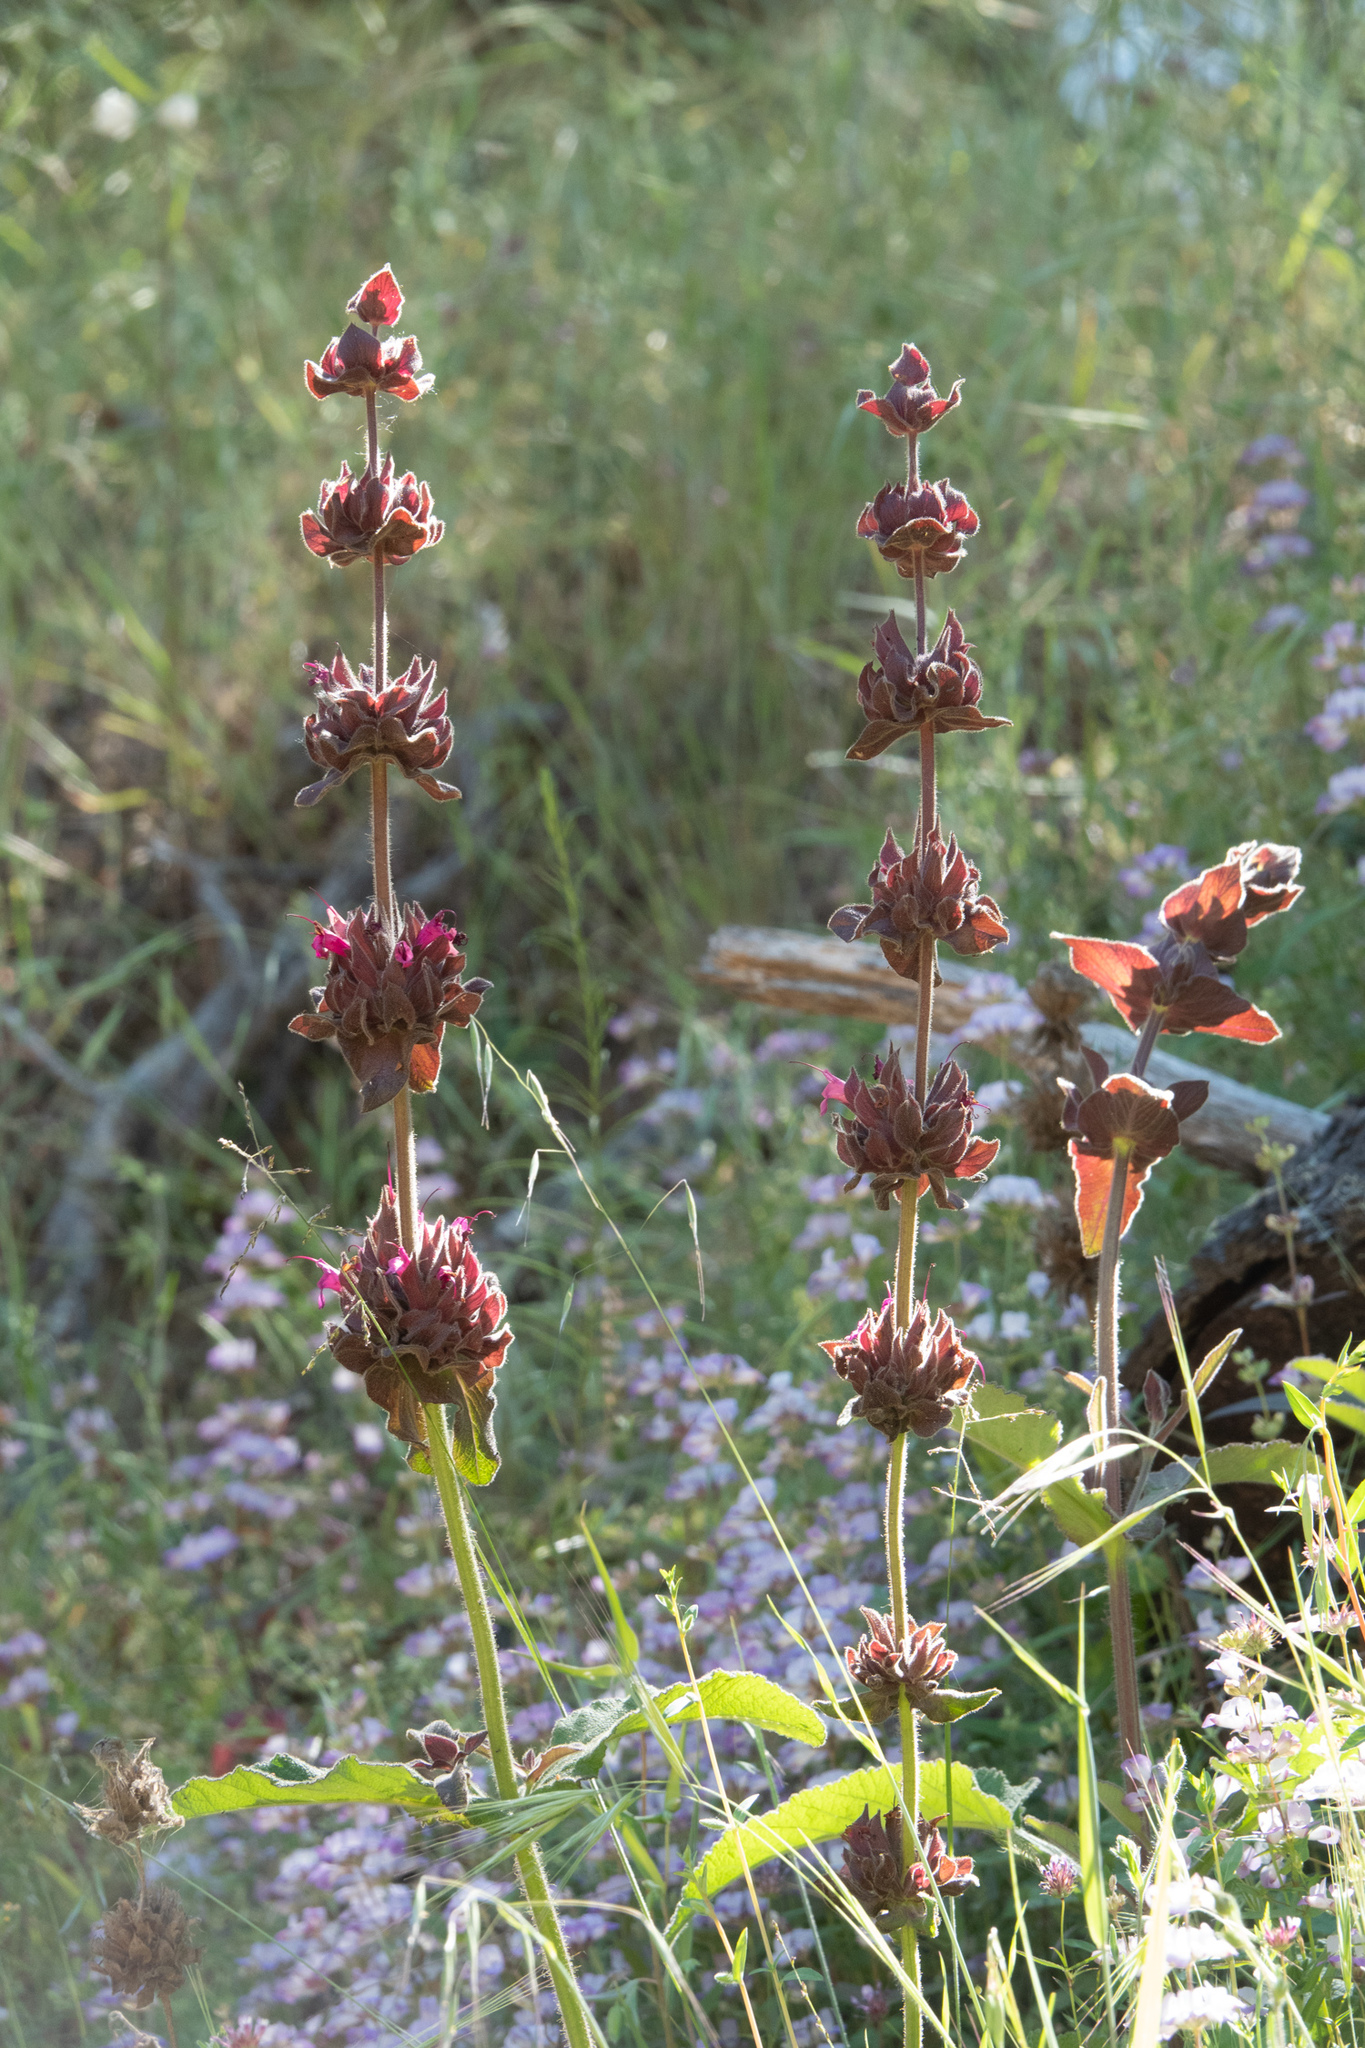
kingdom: Plantae
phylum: Tracheophyta
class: Magnoliopsida
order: Lamiales
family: Lamiaceae
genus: Salvia
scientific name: Salvia spathacea
